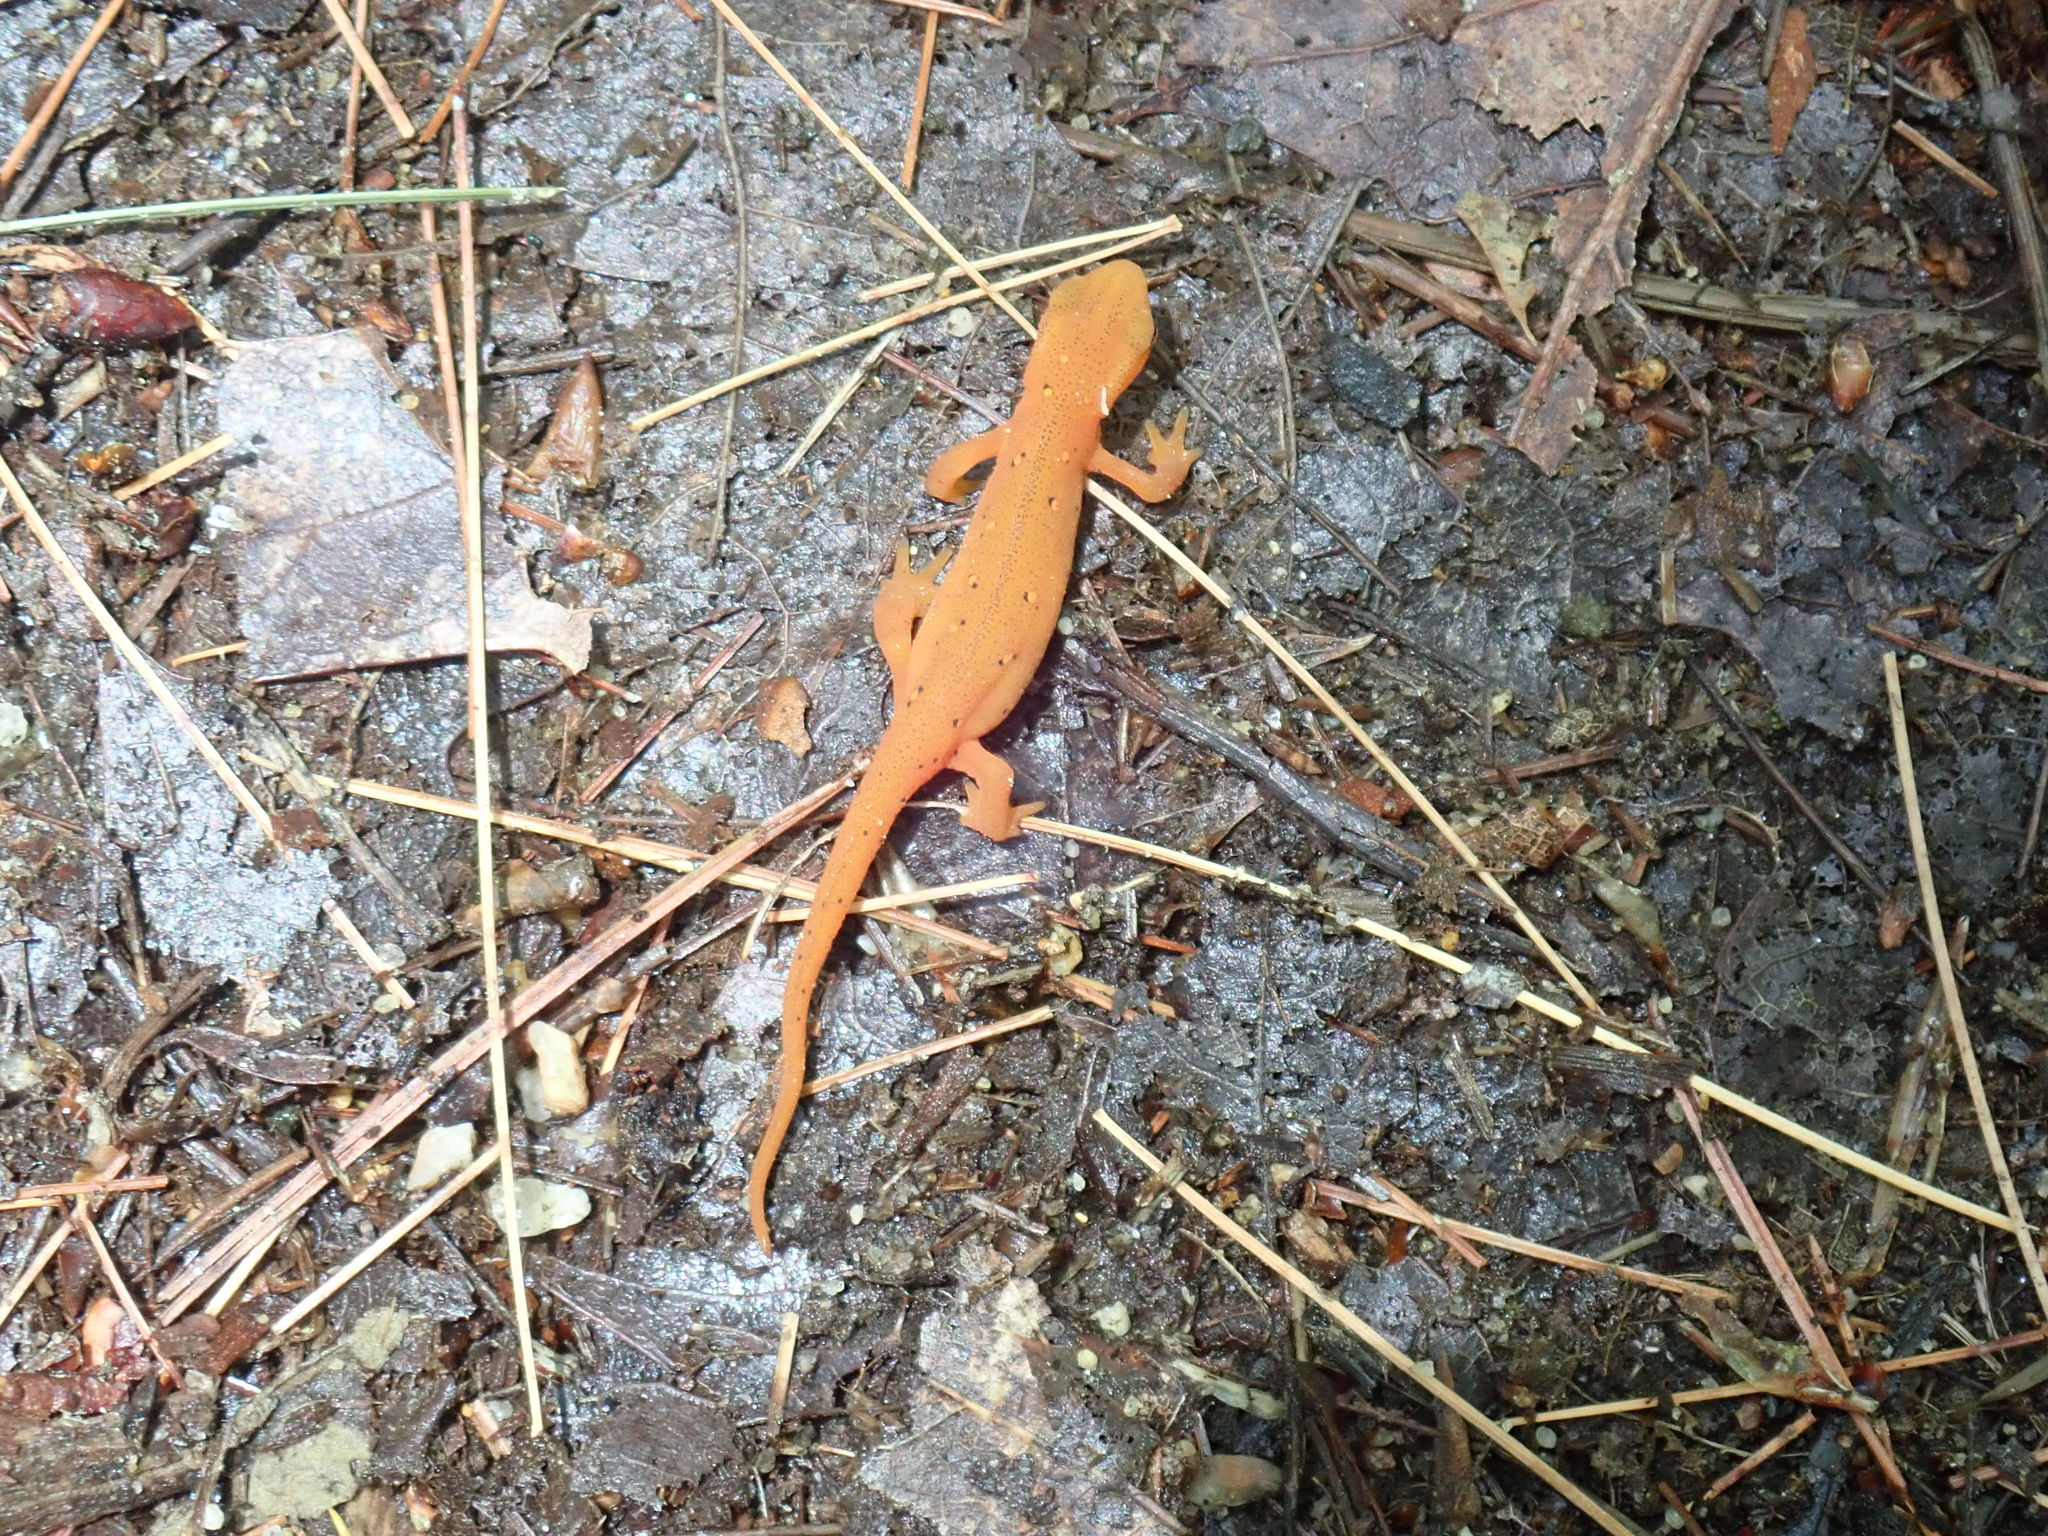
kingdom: Animalia
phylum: Chordata
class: Amphibia
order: Caudata
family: Salamandridae
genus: Notophthalmus
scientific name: Notophthalmus viridescens
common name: Eastern newt
